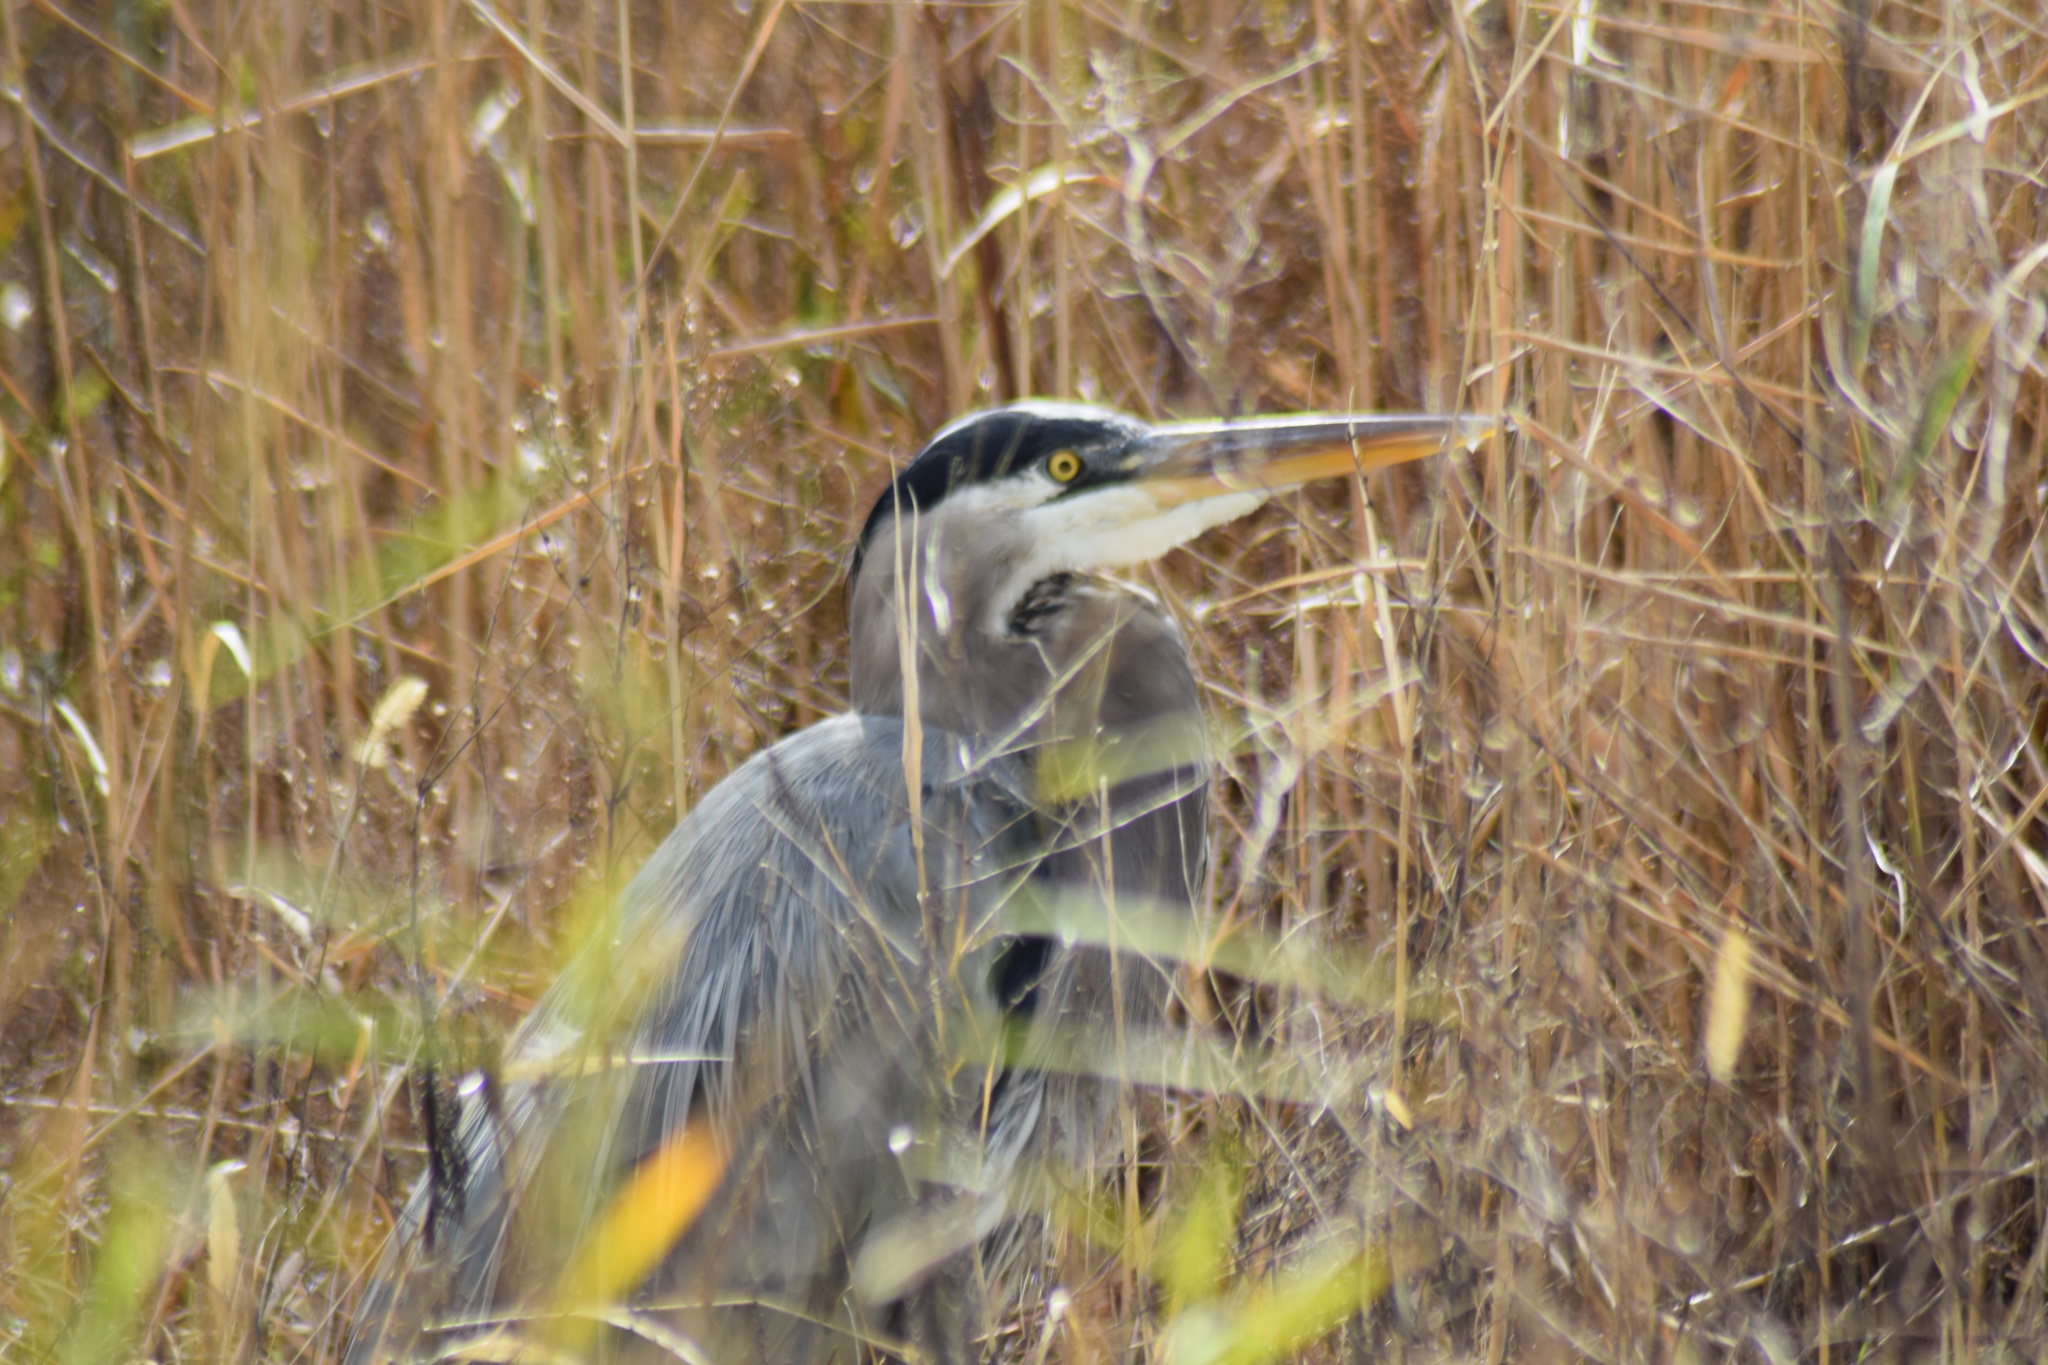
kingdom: Animalia
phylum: Chordata
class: Aves
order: Pelecaniformes
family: Ardeidae
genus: Ardea
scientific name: Ardea herodias
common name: Great blue heron
